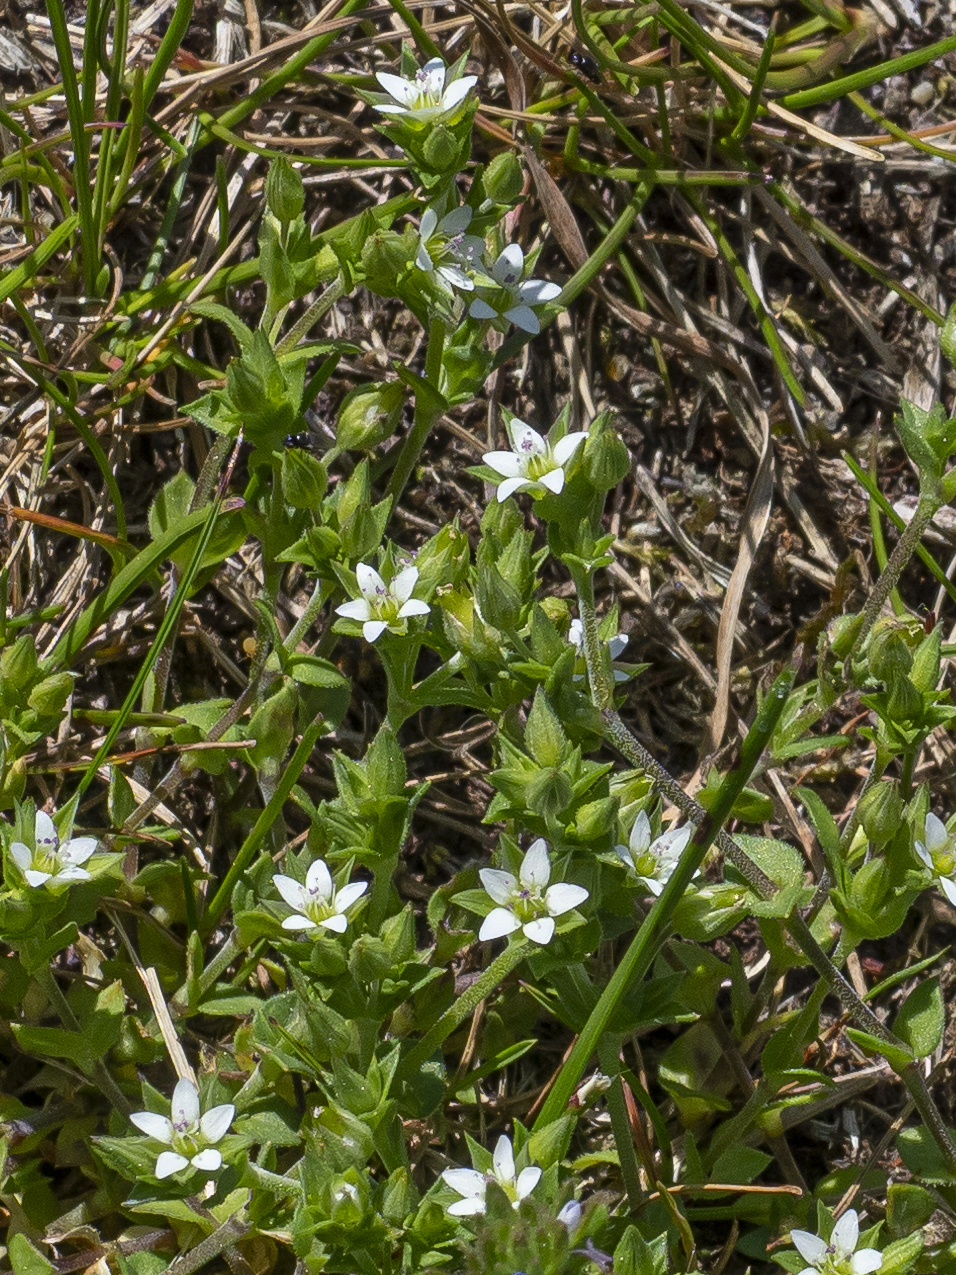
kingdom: Plantae
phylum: Tracheophyta
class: Magnoliopsida
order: Caryophyllales
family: Caryophyllaceae
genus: Arenaria
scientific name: Arenaria serpyllifolia
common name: Thyme-leaved sandwort
